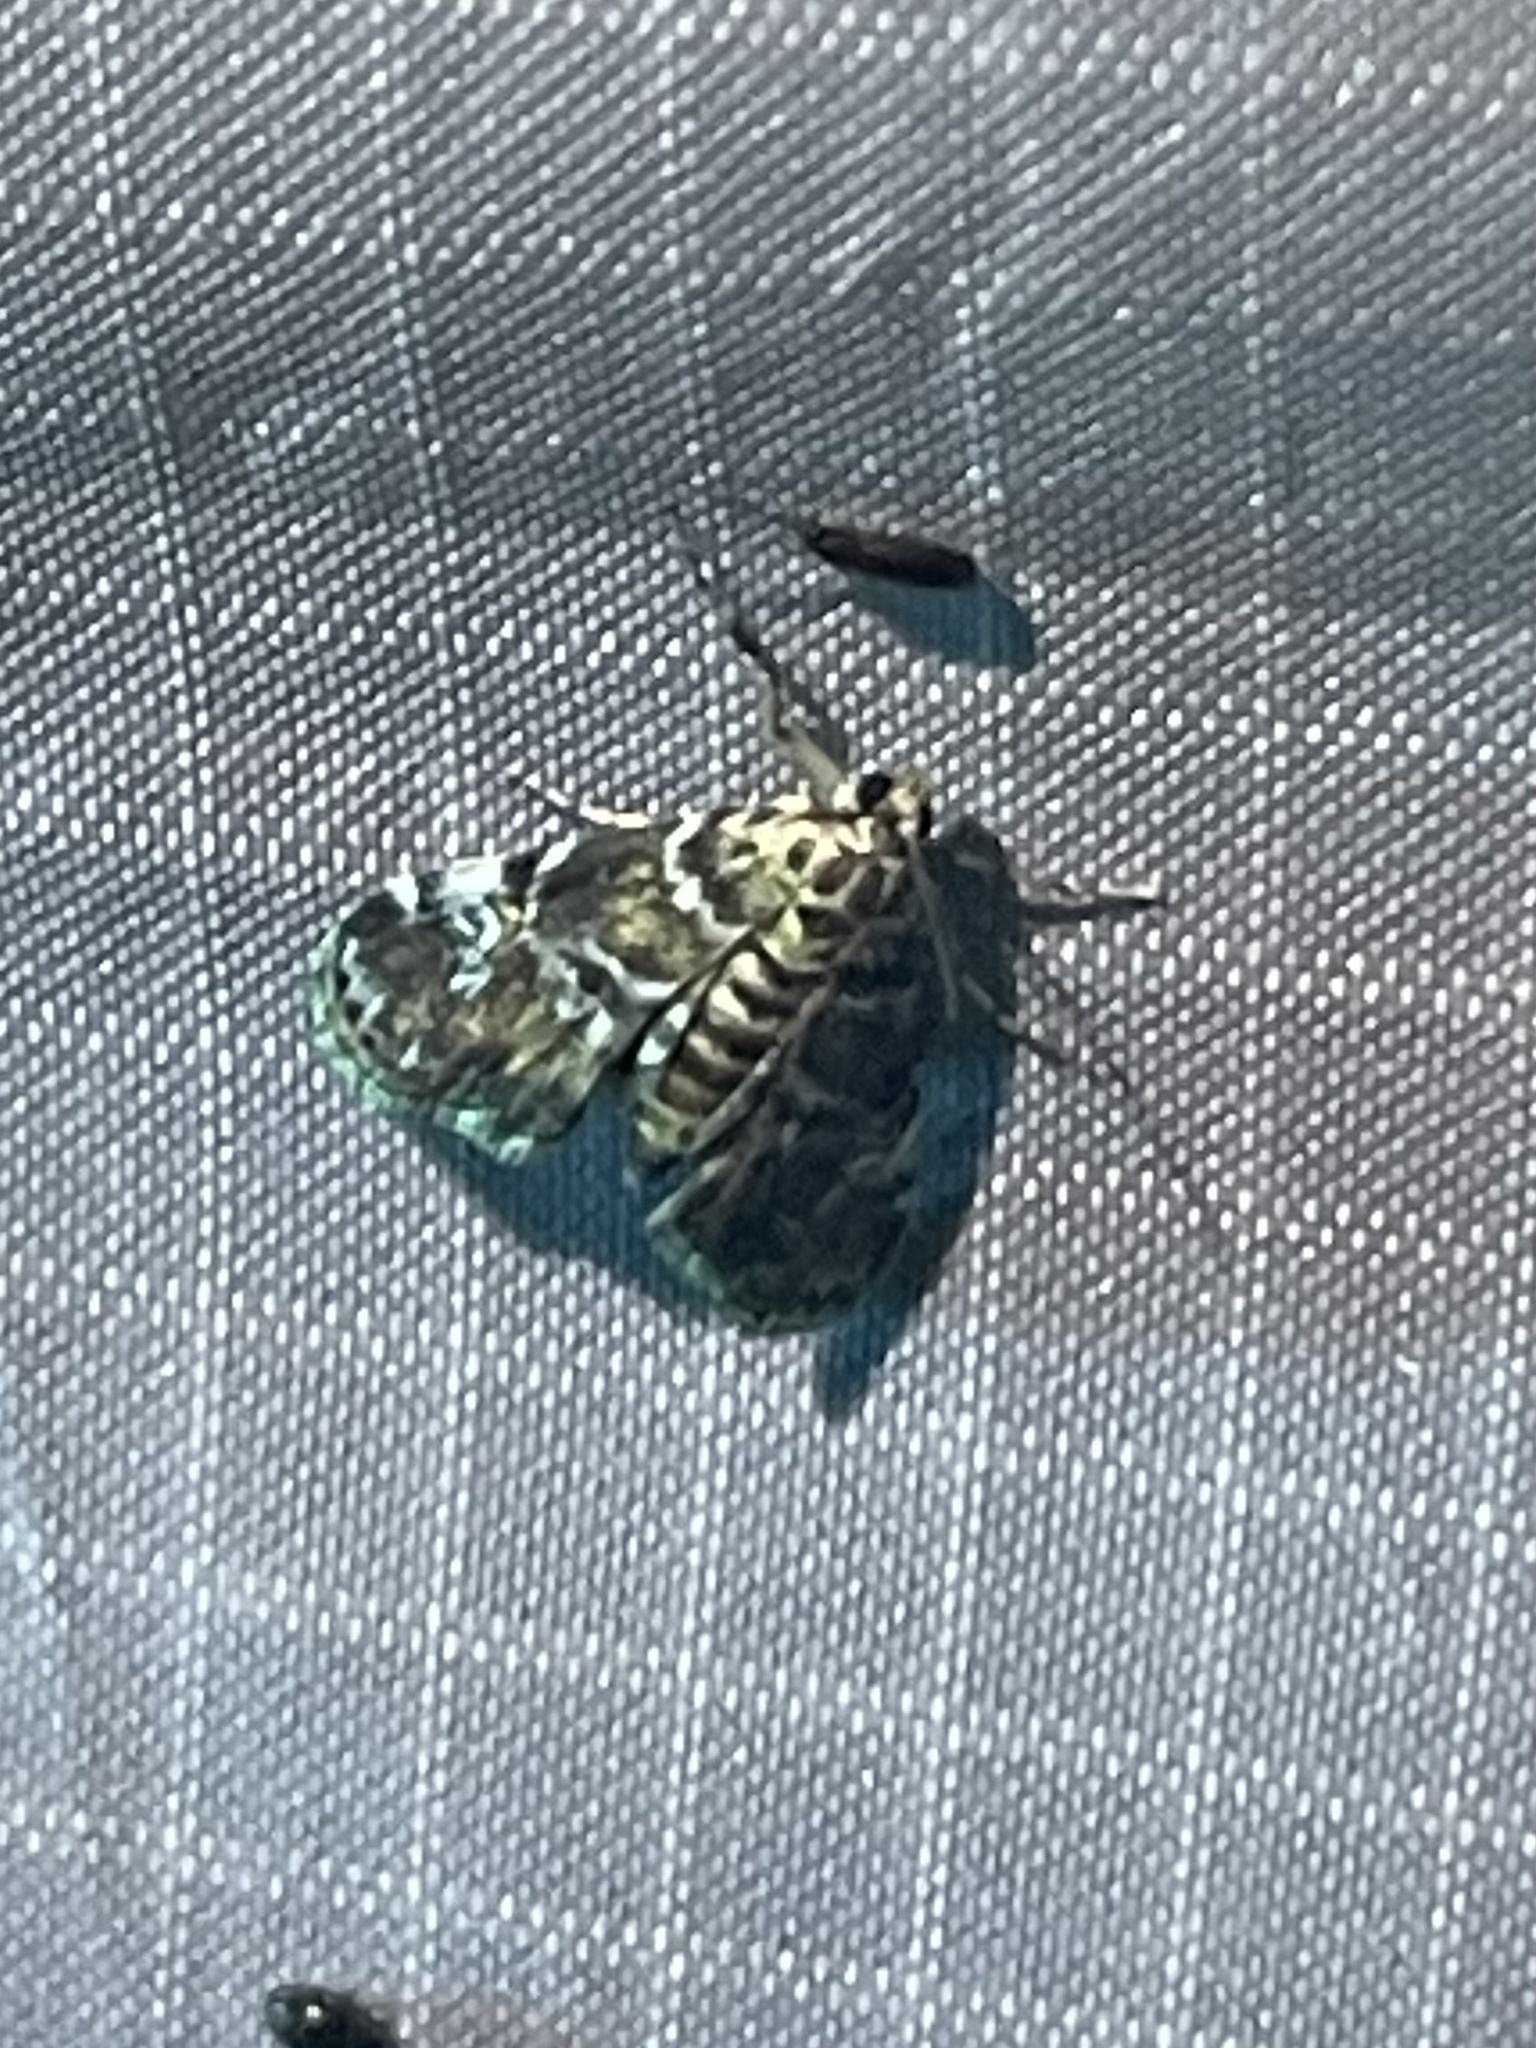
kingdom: Animalia
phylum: Arthropoda
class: Insecta
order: Lepidoptera
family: Crambidae
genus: Elophila
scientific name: Elophila obliteralis
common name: Waterlily leafcutter moth
